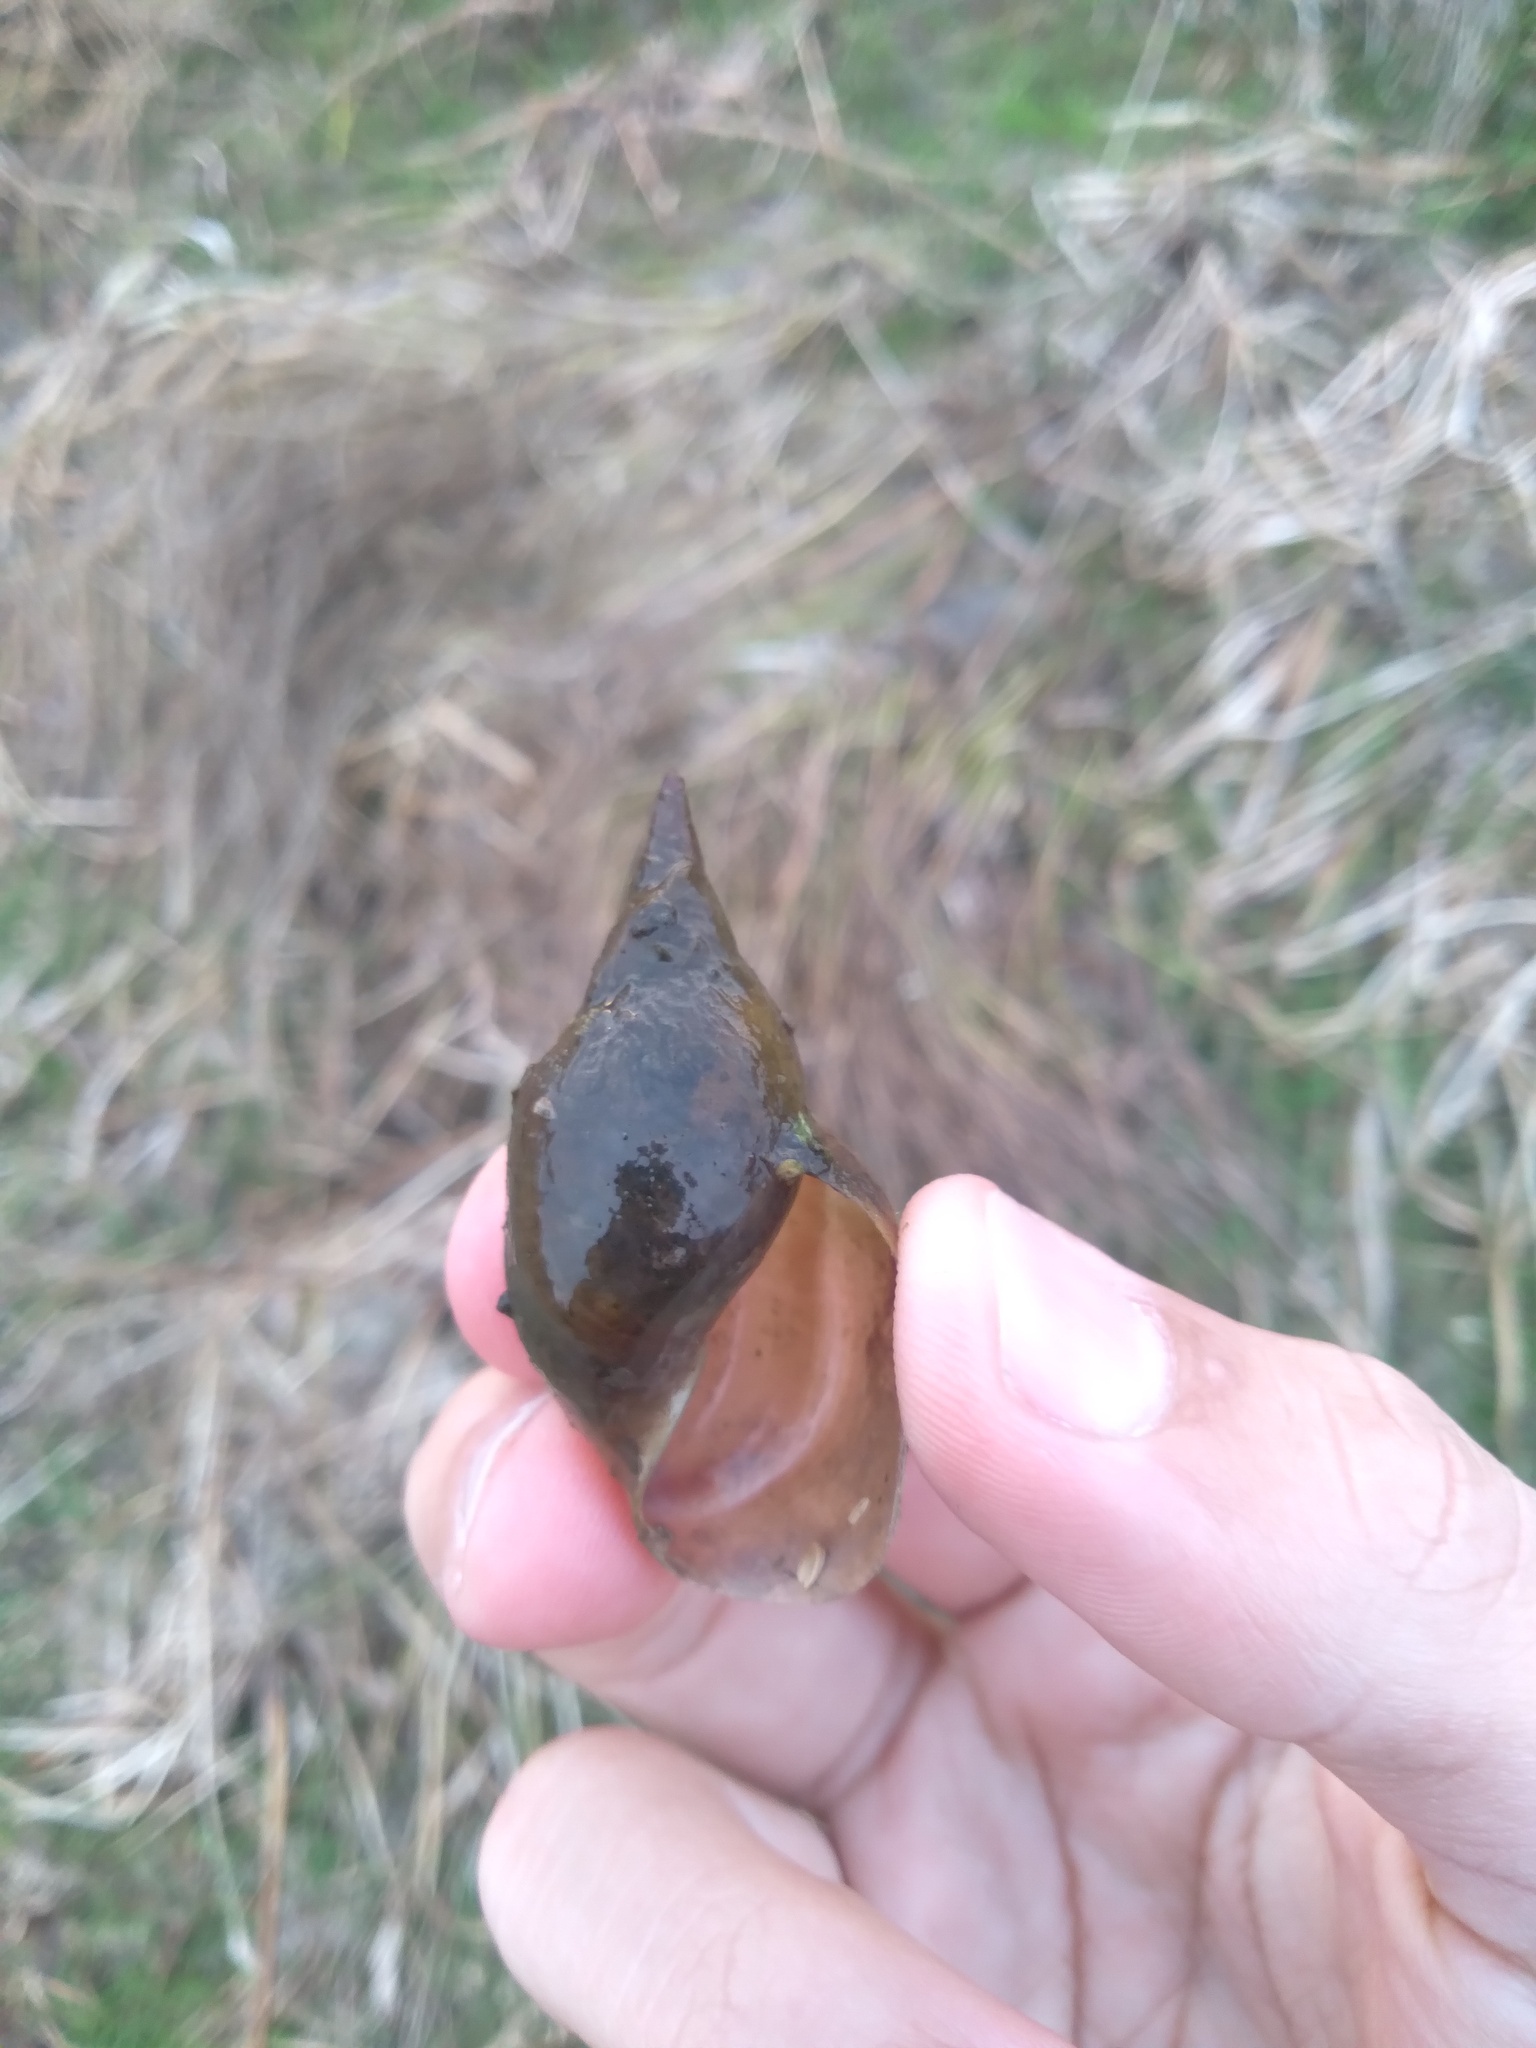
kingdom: Animalia
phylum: Mollusca
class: Gastropoda
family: Lymnaeidae
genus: Lymnaea
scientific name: Lymnaea stagnalis
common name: Great pond snail
